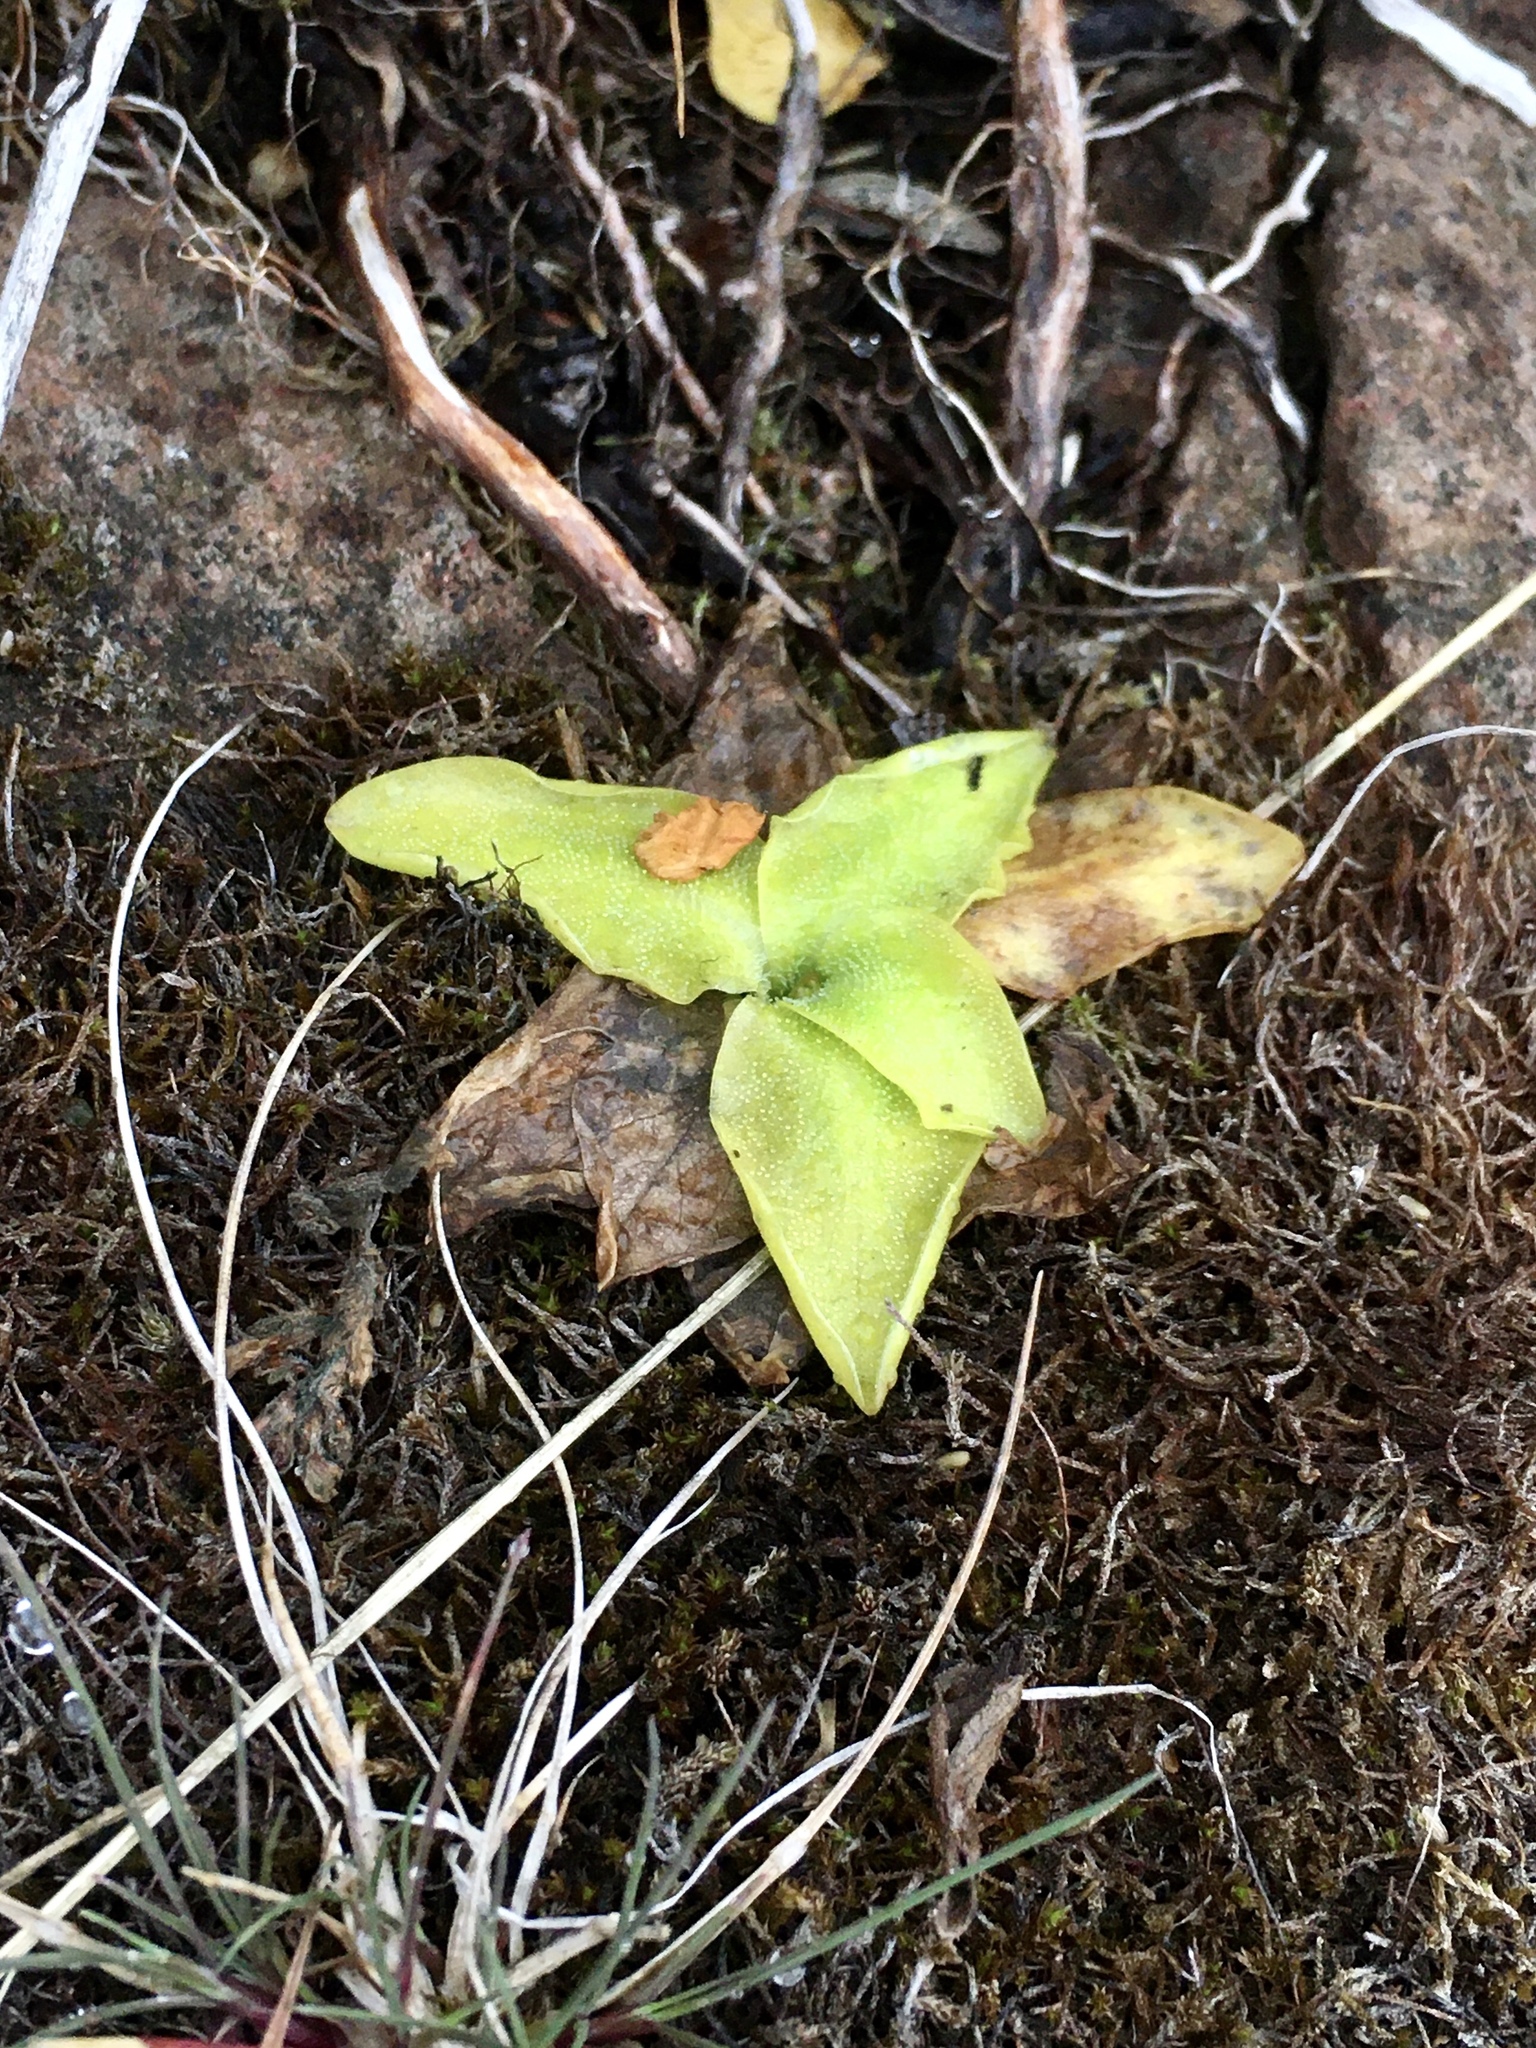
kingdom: Plantae
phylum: Tracheophyta
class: Magnoliopsida
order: Lamiales
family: Lentibulariaceae
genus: Pinguicula
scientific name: Pinguicula vulgaris
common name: Common butterwort
